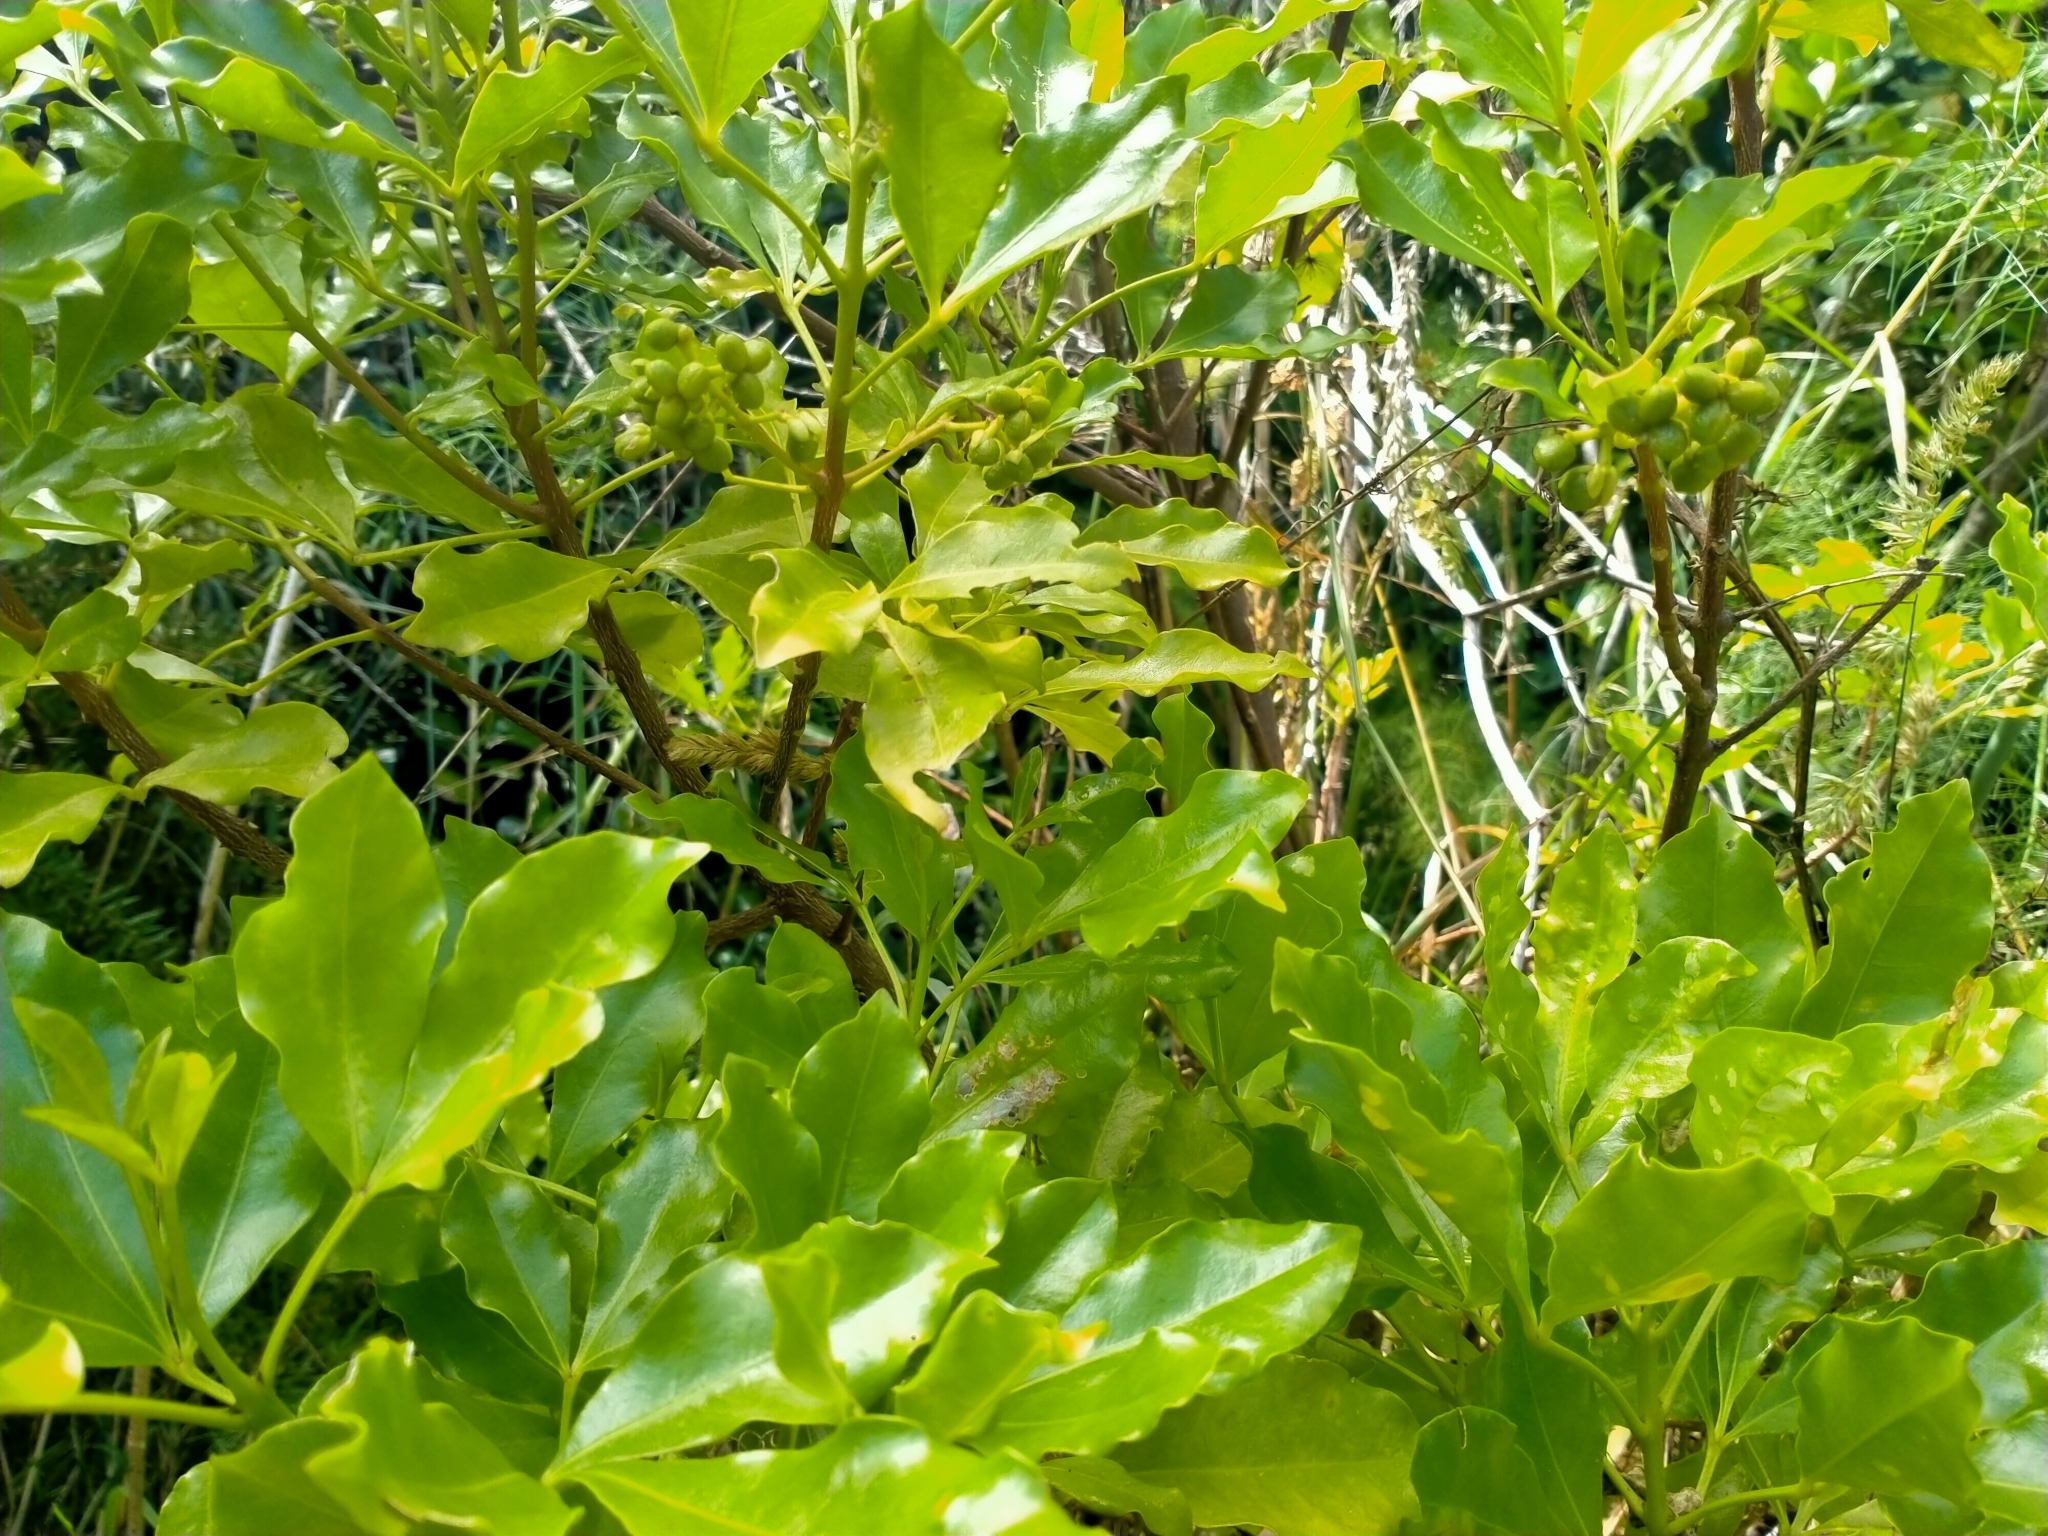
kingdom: Plantae
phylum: Tracheophyta
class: Magnoliopsida
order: Sapindales
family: Rutaceae
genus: Melicope
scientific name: Melicope ternata
